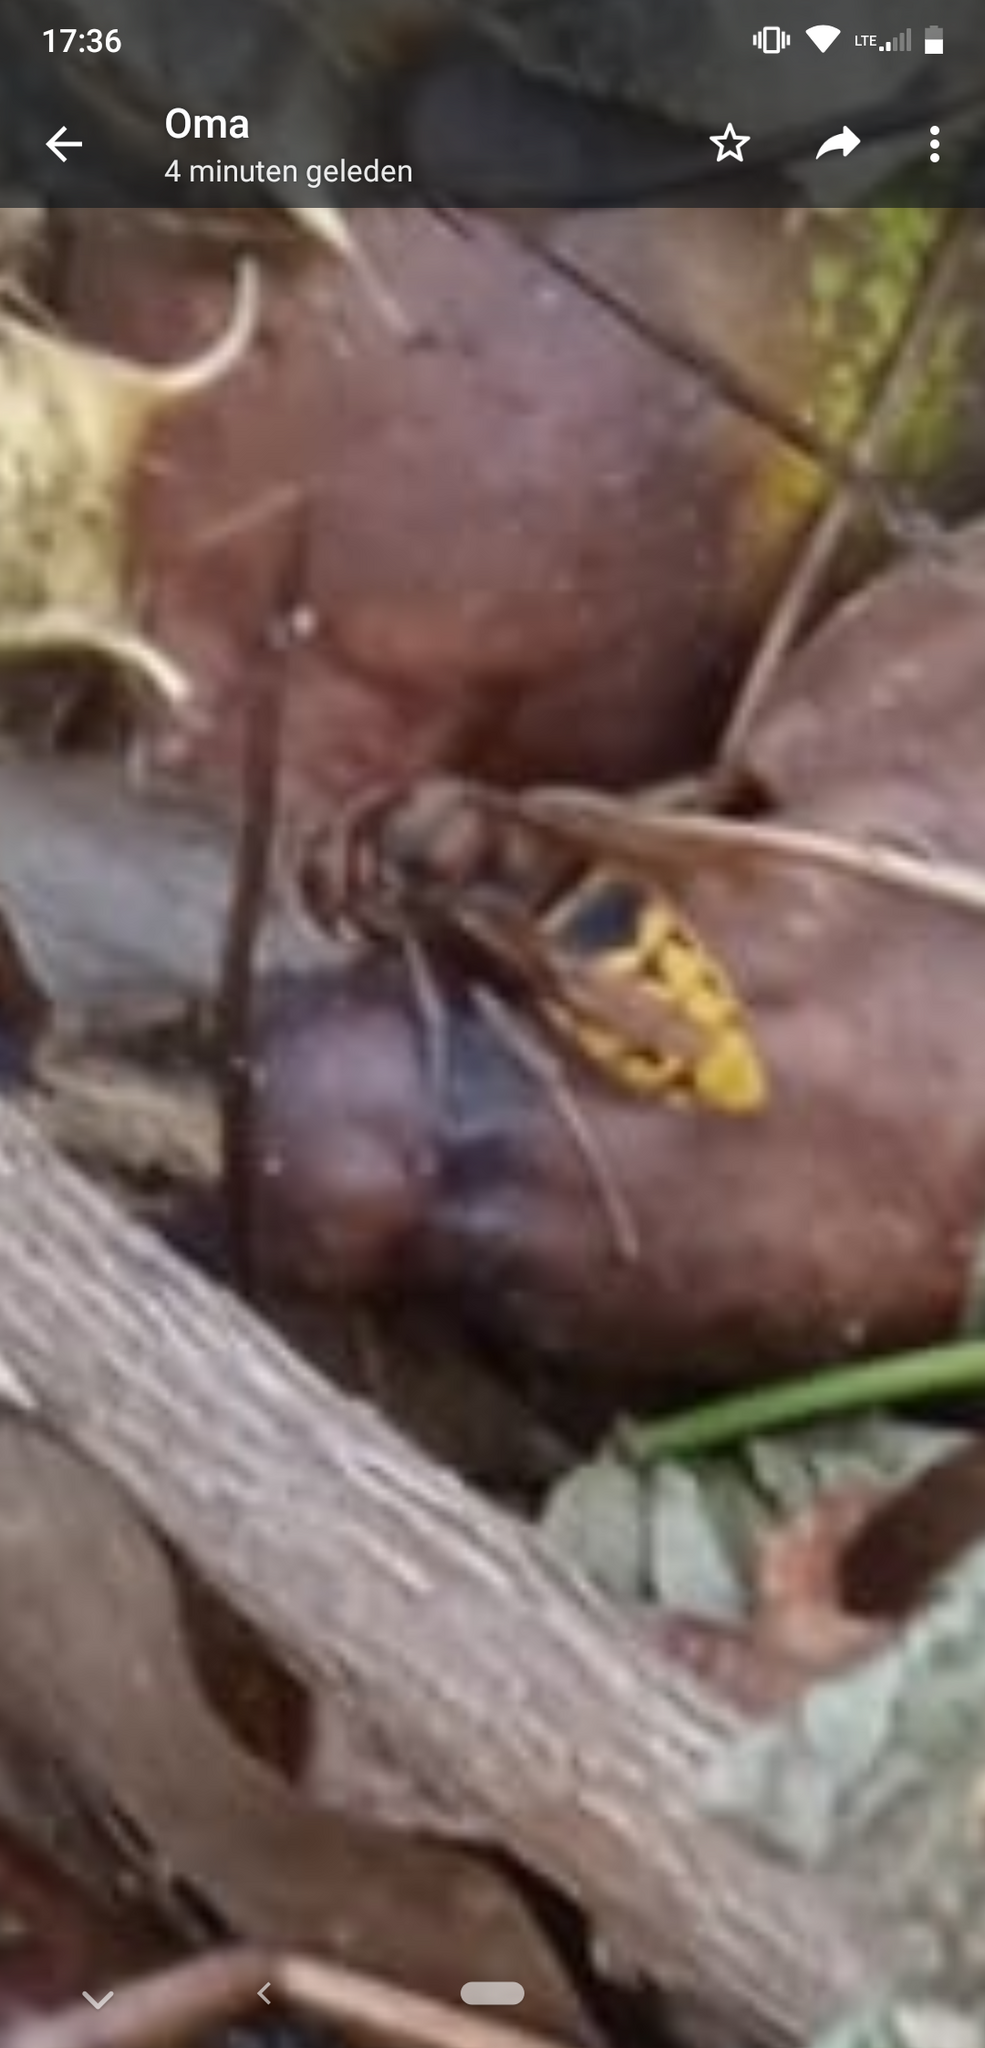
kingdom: Animalia
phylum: Arthropoda
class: Insecta
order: Hymenoptera
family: Vespidae
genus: Vespa
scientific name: Vespa crabro
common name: Hornet
